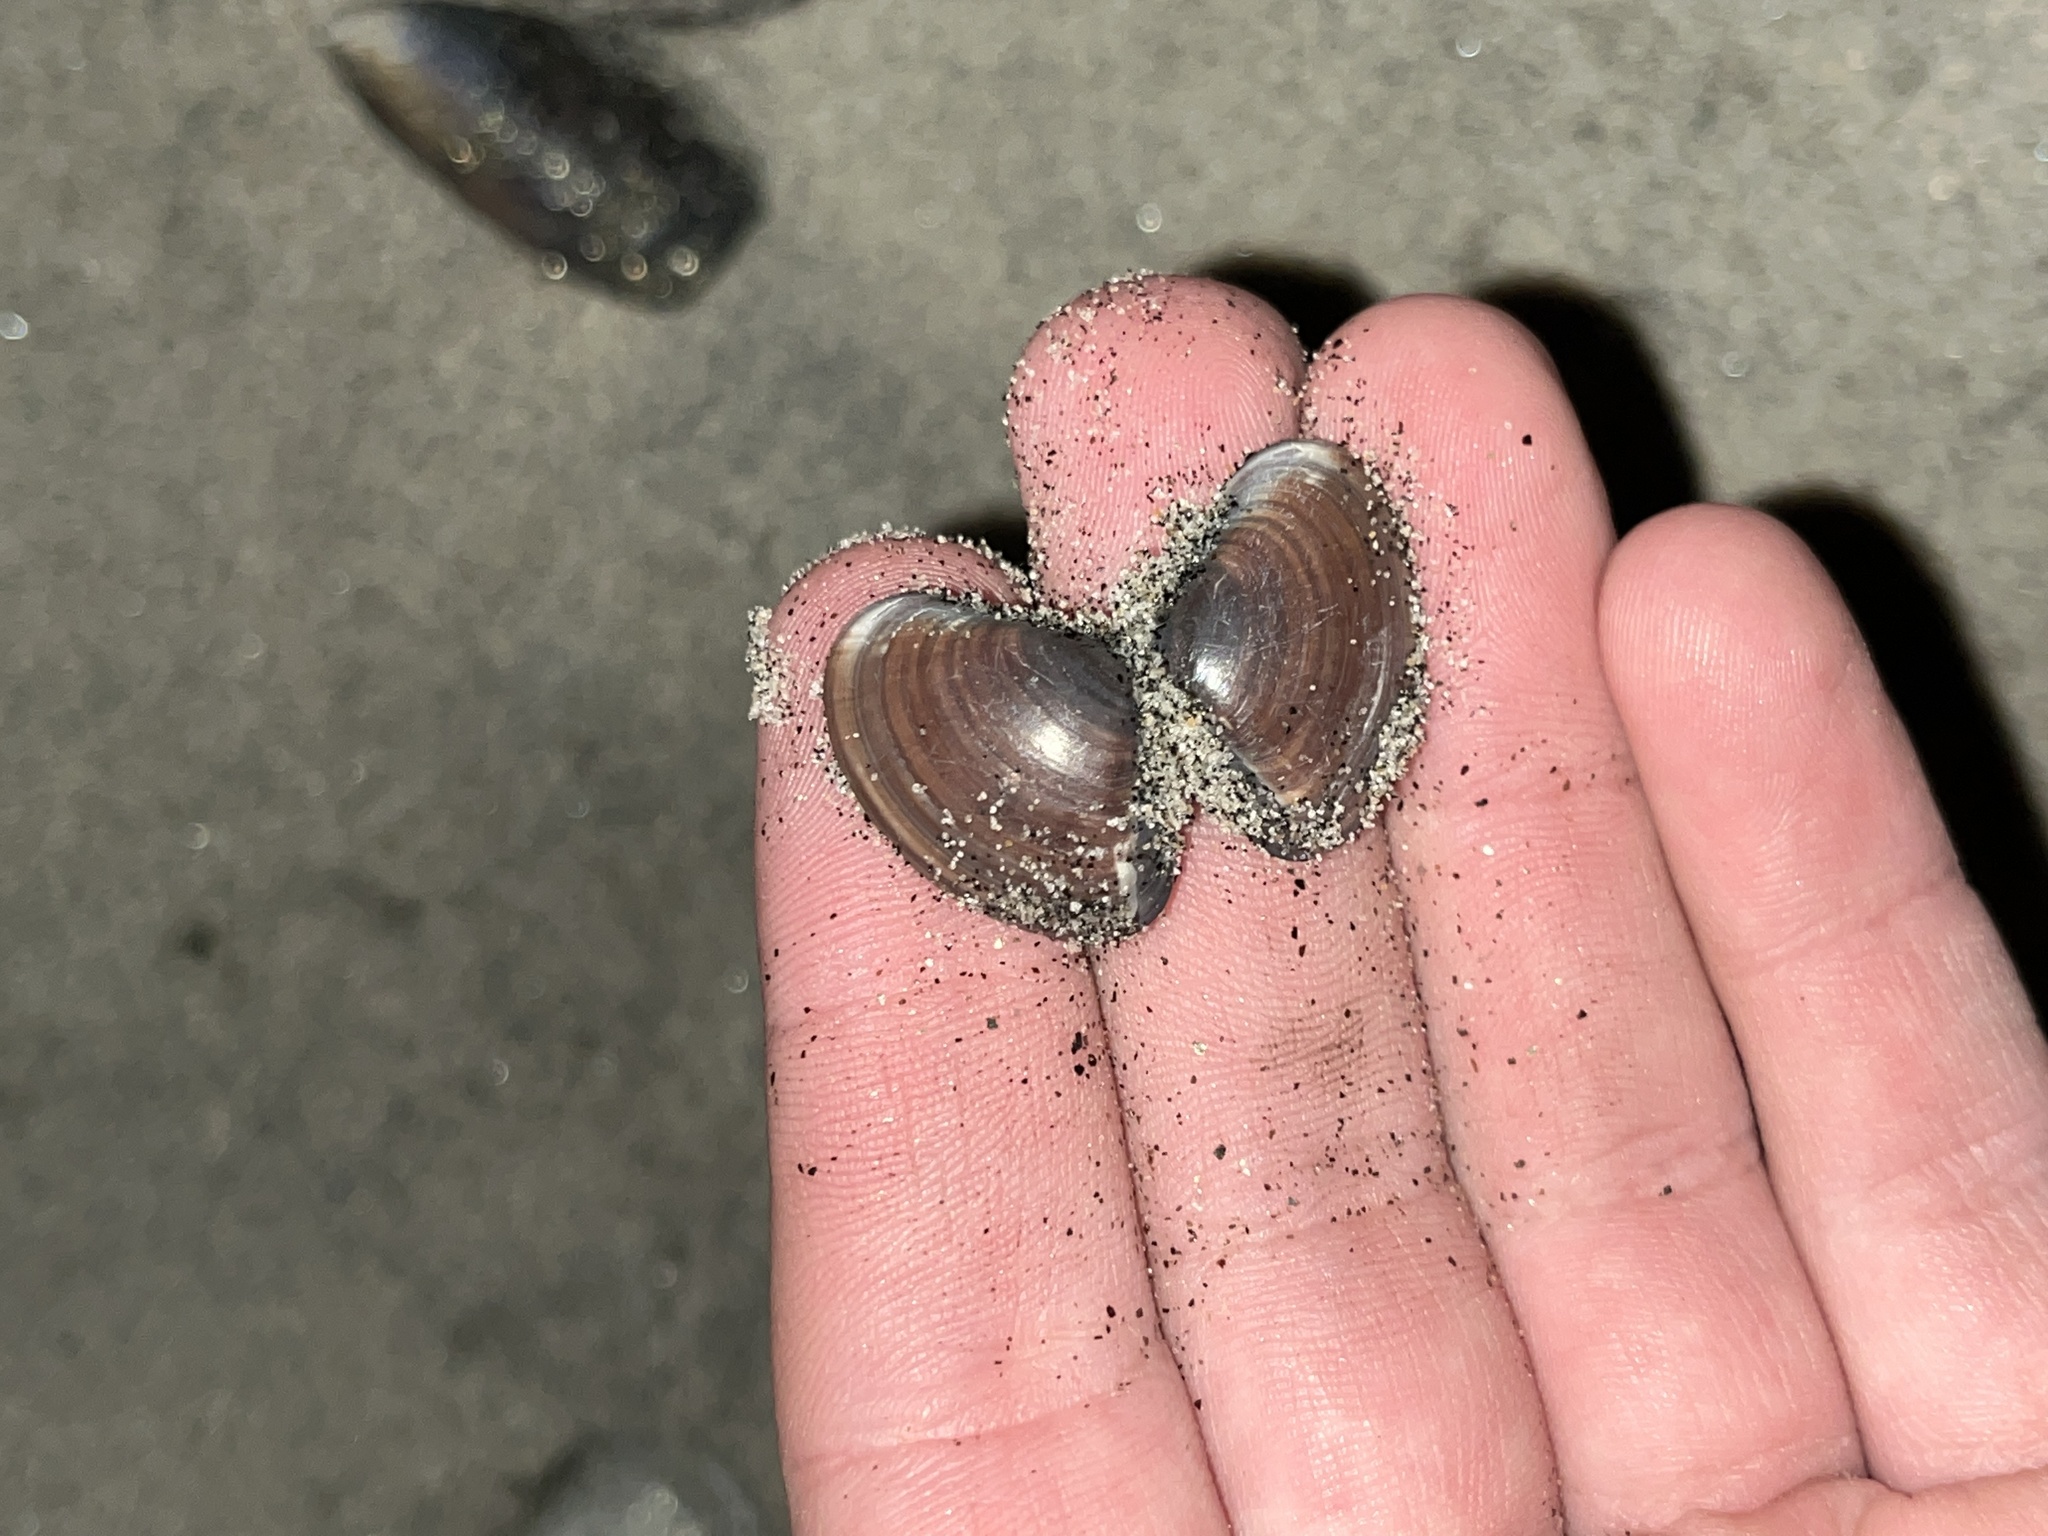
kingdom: Animalia
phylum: Mollusca
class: Bivalvia
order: Venerida
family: Veneridae
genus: Tivela
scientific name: Tivela stultorum
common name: Pismo clam
